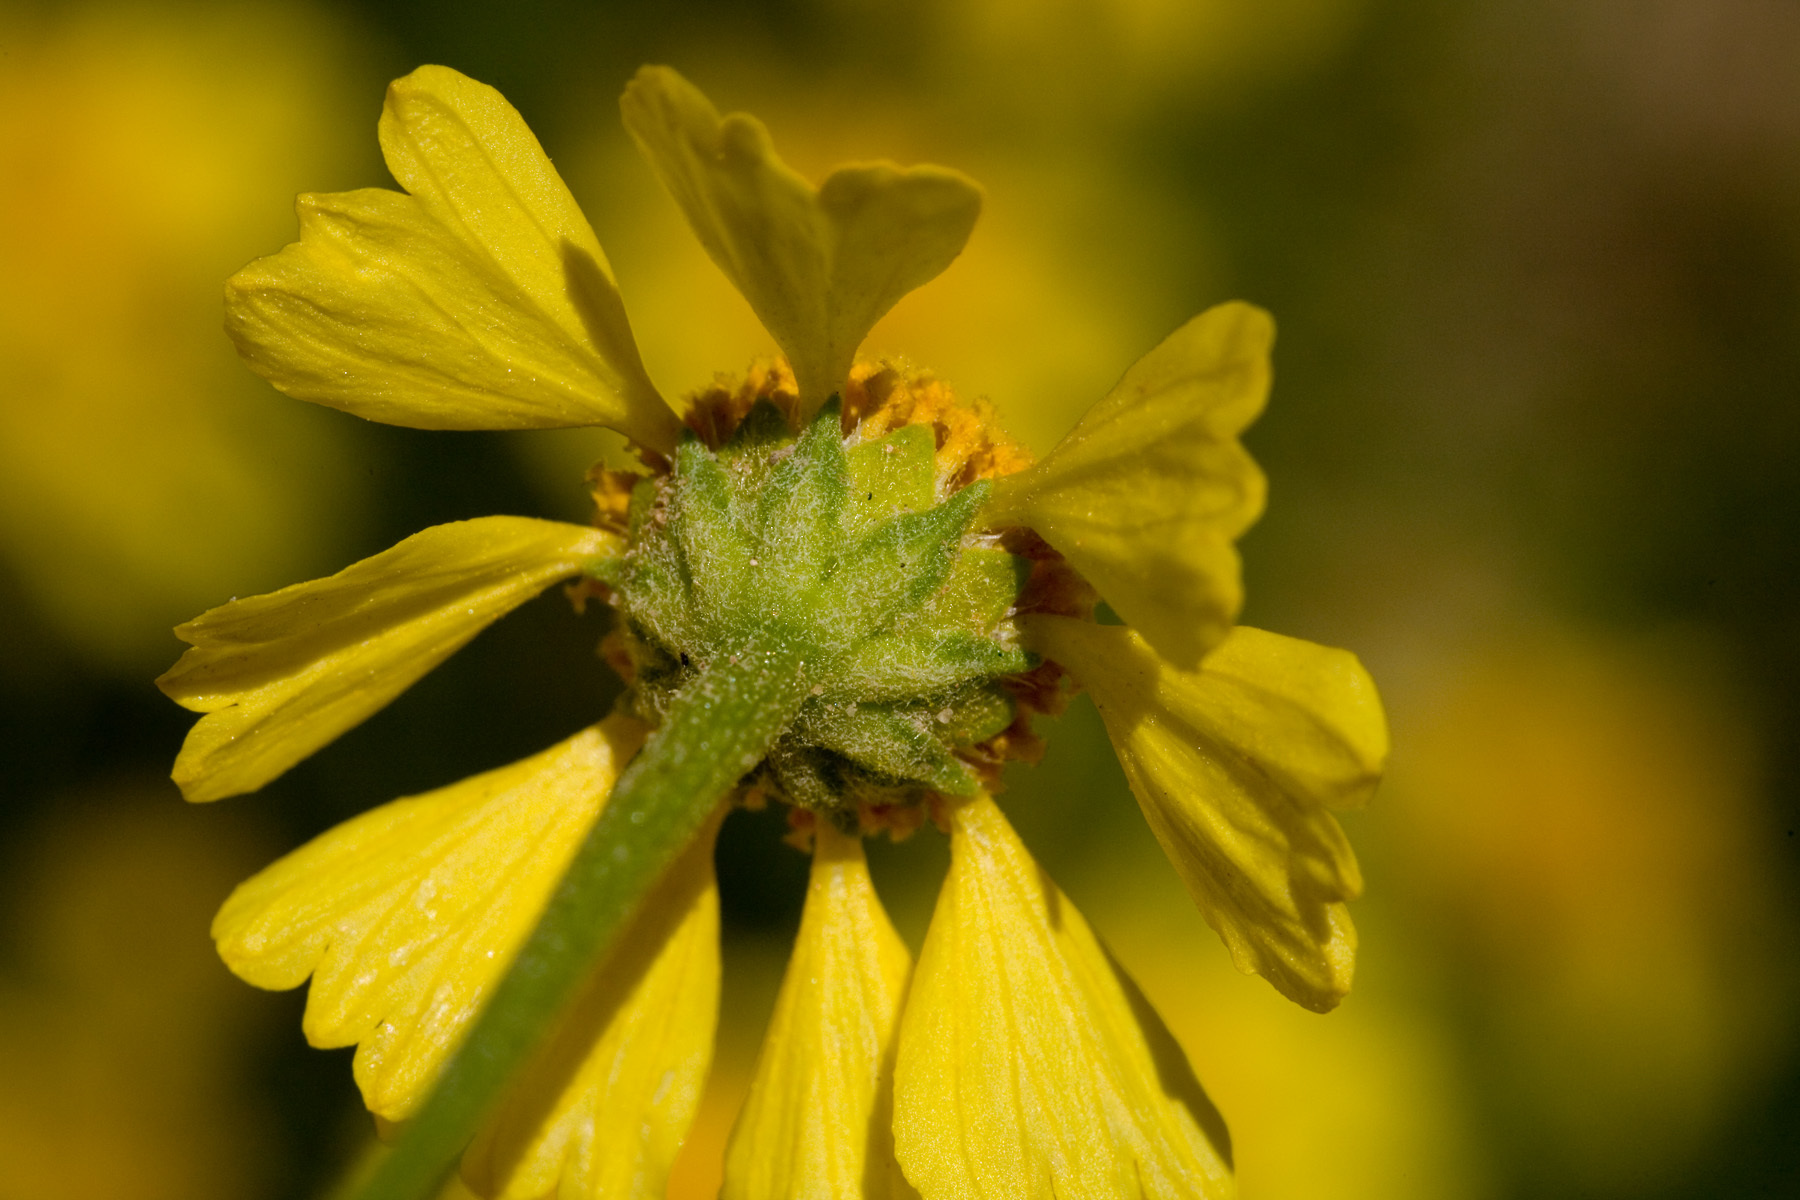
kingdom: Plantae
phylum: Tracheophyta
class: Magnoliopsida
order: Asterales
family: Asteraceae
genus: Hymenoxys
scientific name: Hymenoxys odorata
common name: Bitter rubberweed
